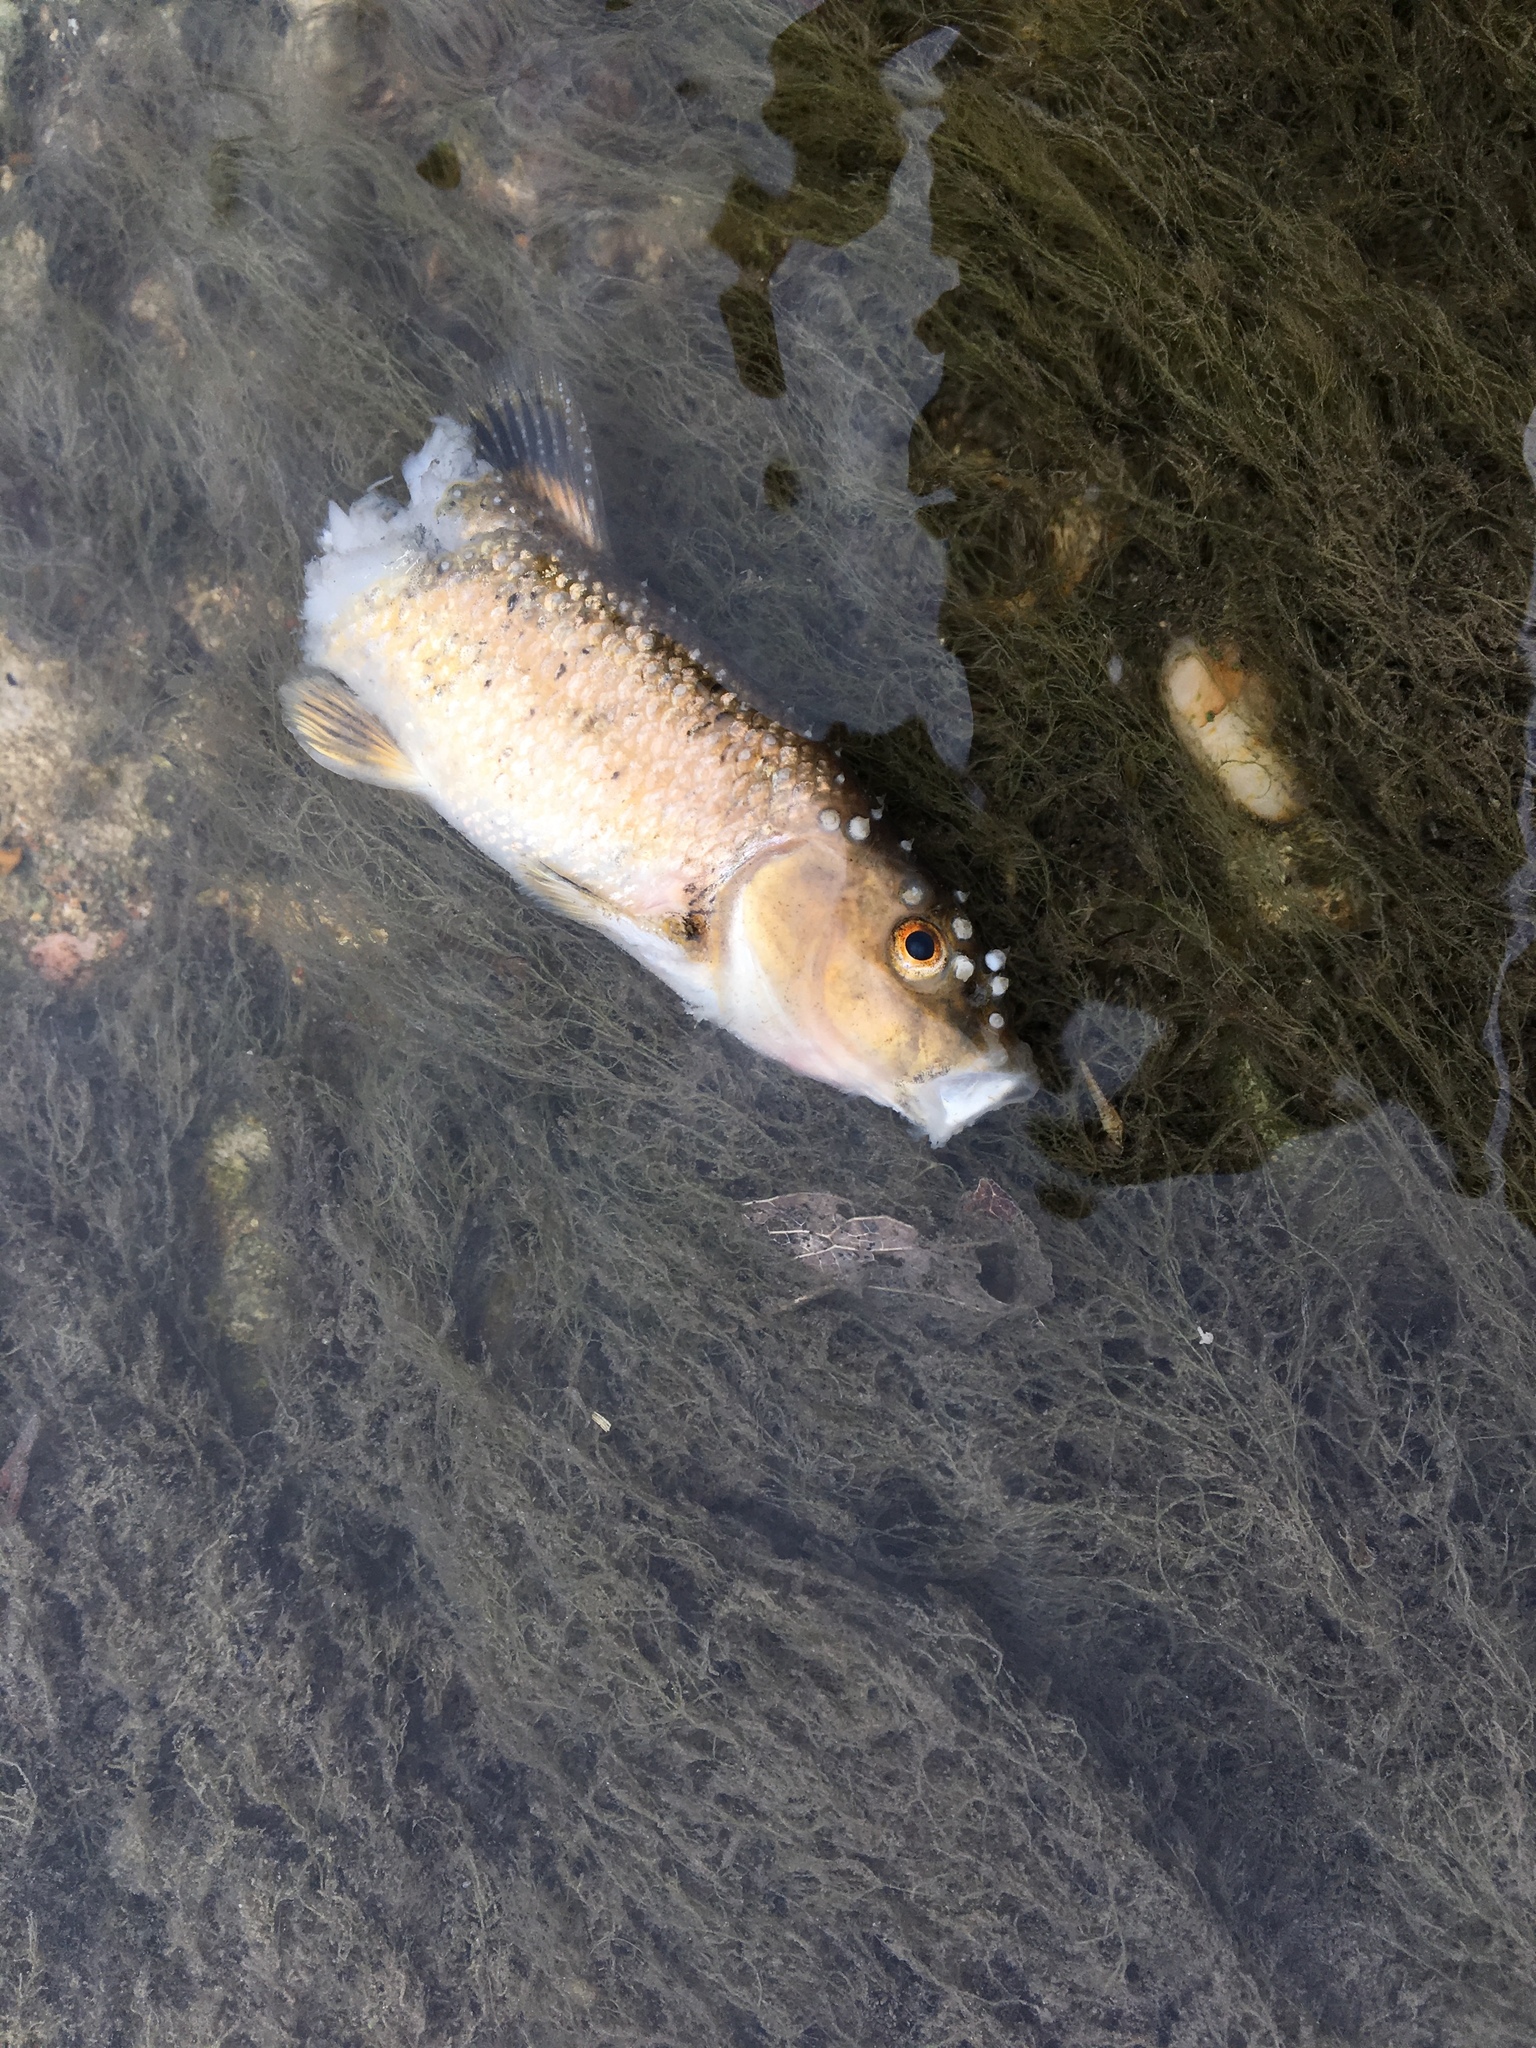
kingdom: Animalia
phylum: Chordata
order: Cypriniformes
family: Cyprinidae
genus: Campostoma
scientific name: Campostoma anomalum
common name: Central stoneroller
